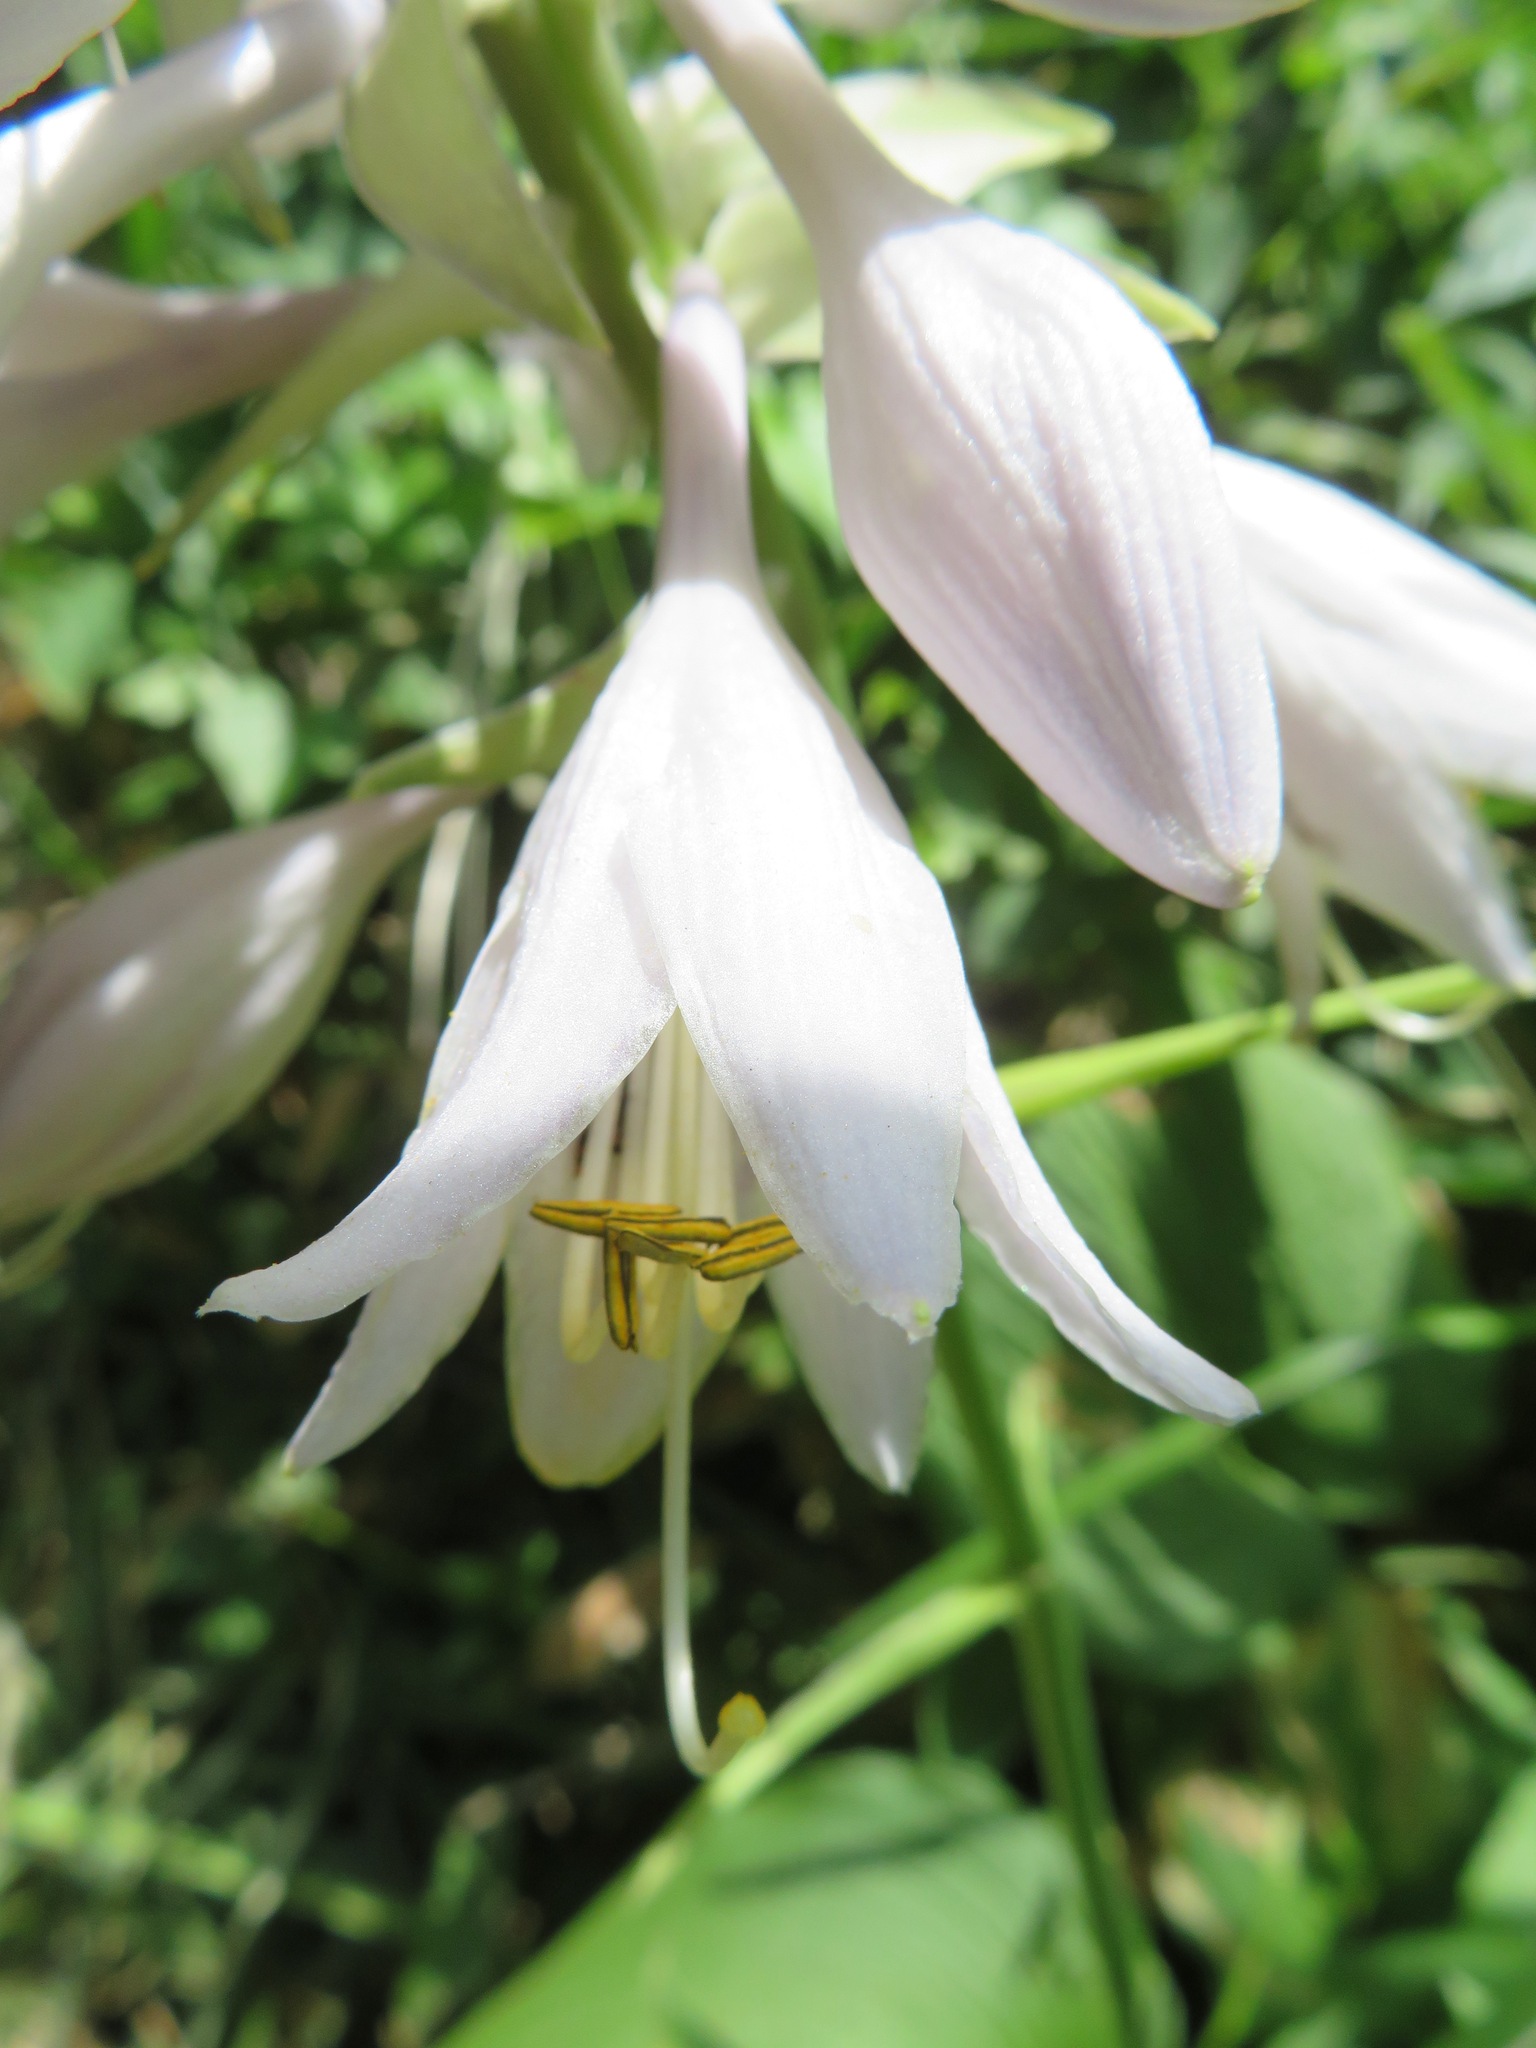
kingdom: Plantae
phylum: Tracheophyta
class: Liliopsida
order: Asparagales
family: Asparagaceae
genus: Hosta
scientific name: Hosta sieboldiana
